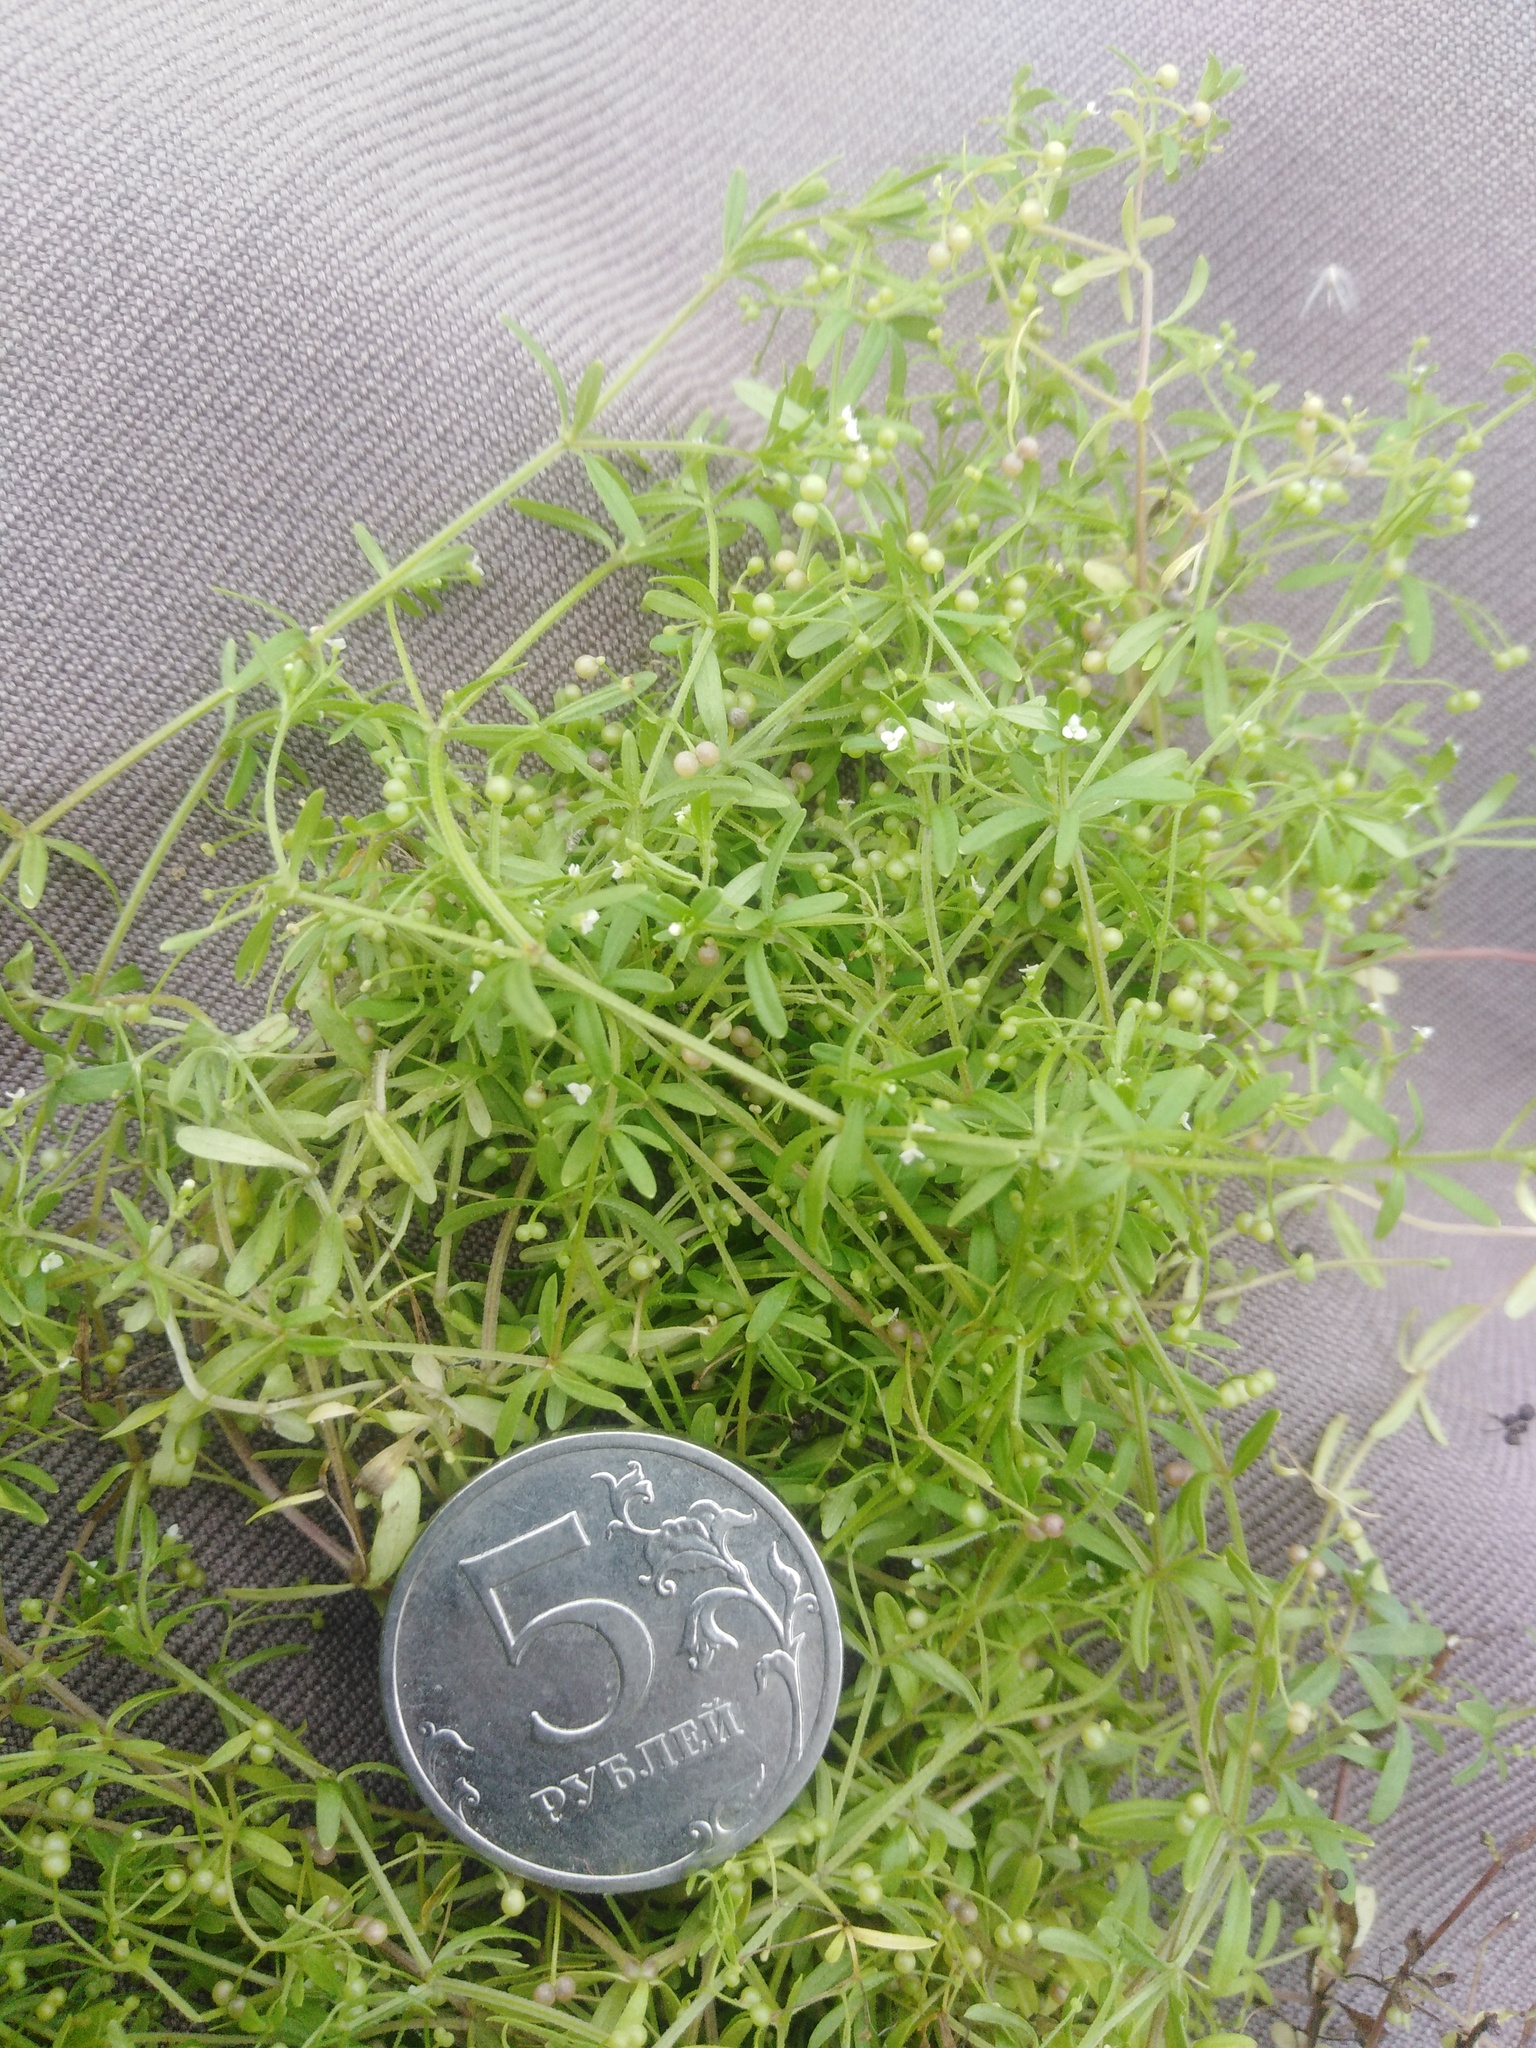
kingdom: Plantae
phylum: Tracheophyta
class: Magnoliopsida
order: Gentianales
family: Rubiaceae
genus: Galium
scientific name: Galium trifidum
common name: Small bedstraw
